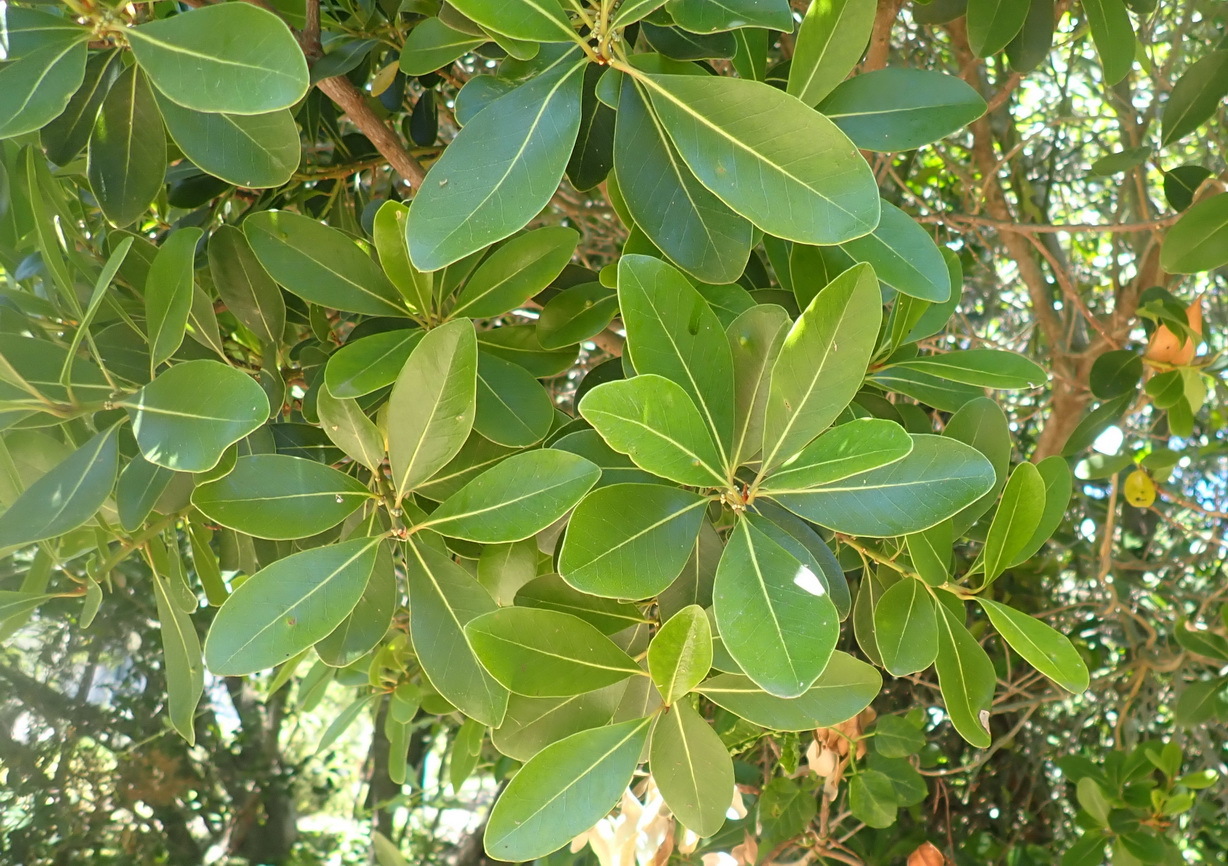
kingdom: Plantae
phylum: Tracheophyta
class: Magnoliopsida
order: Ericales
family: Sapotaceae
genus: Sideroxylon
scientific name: Sideroxylon inerme
